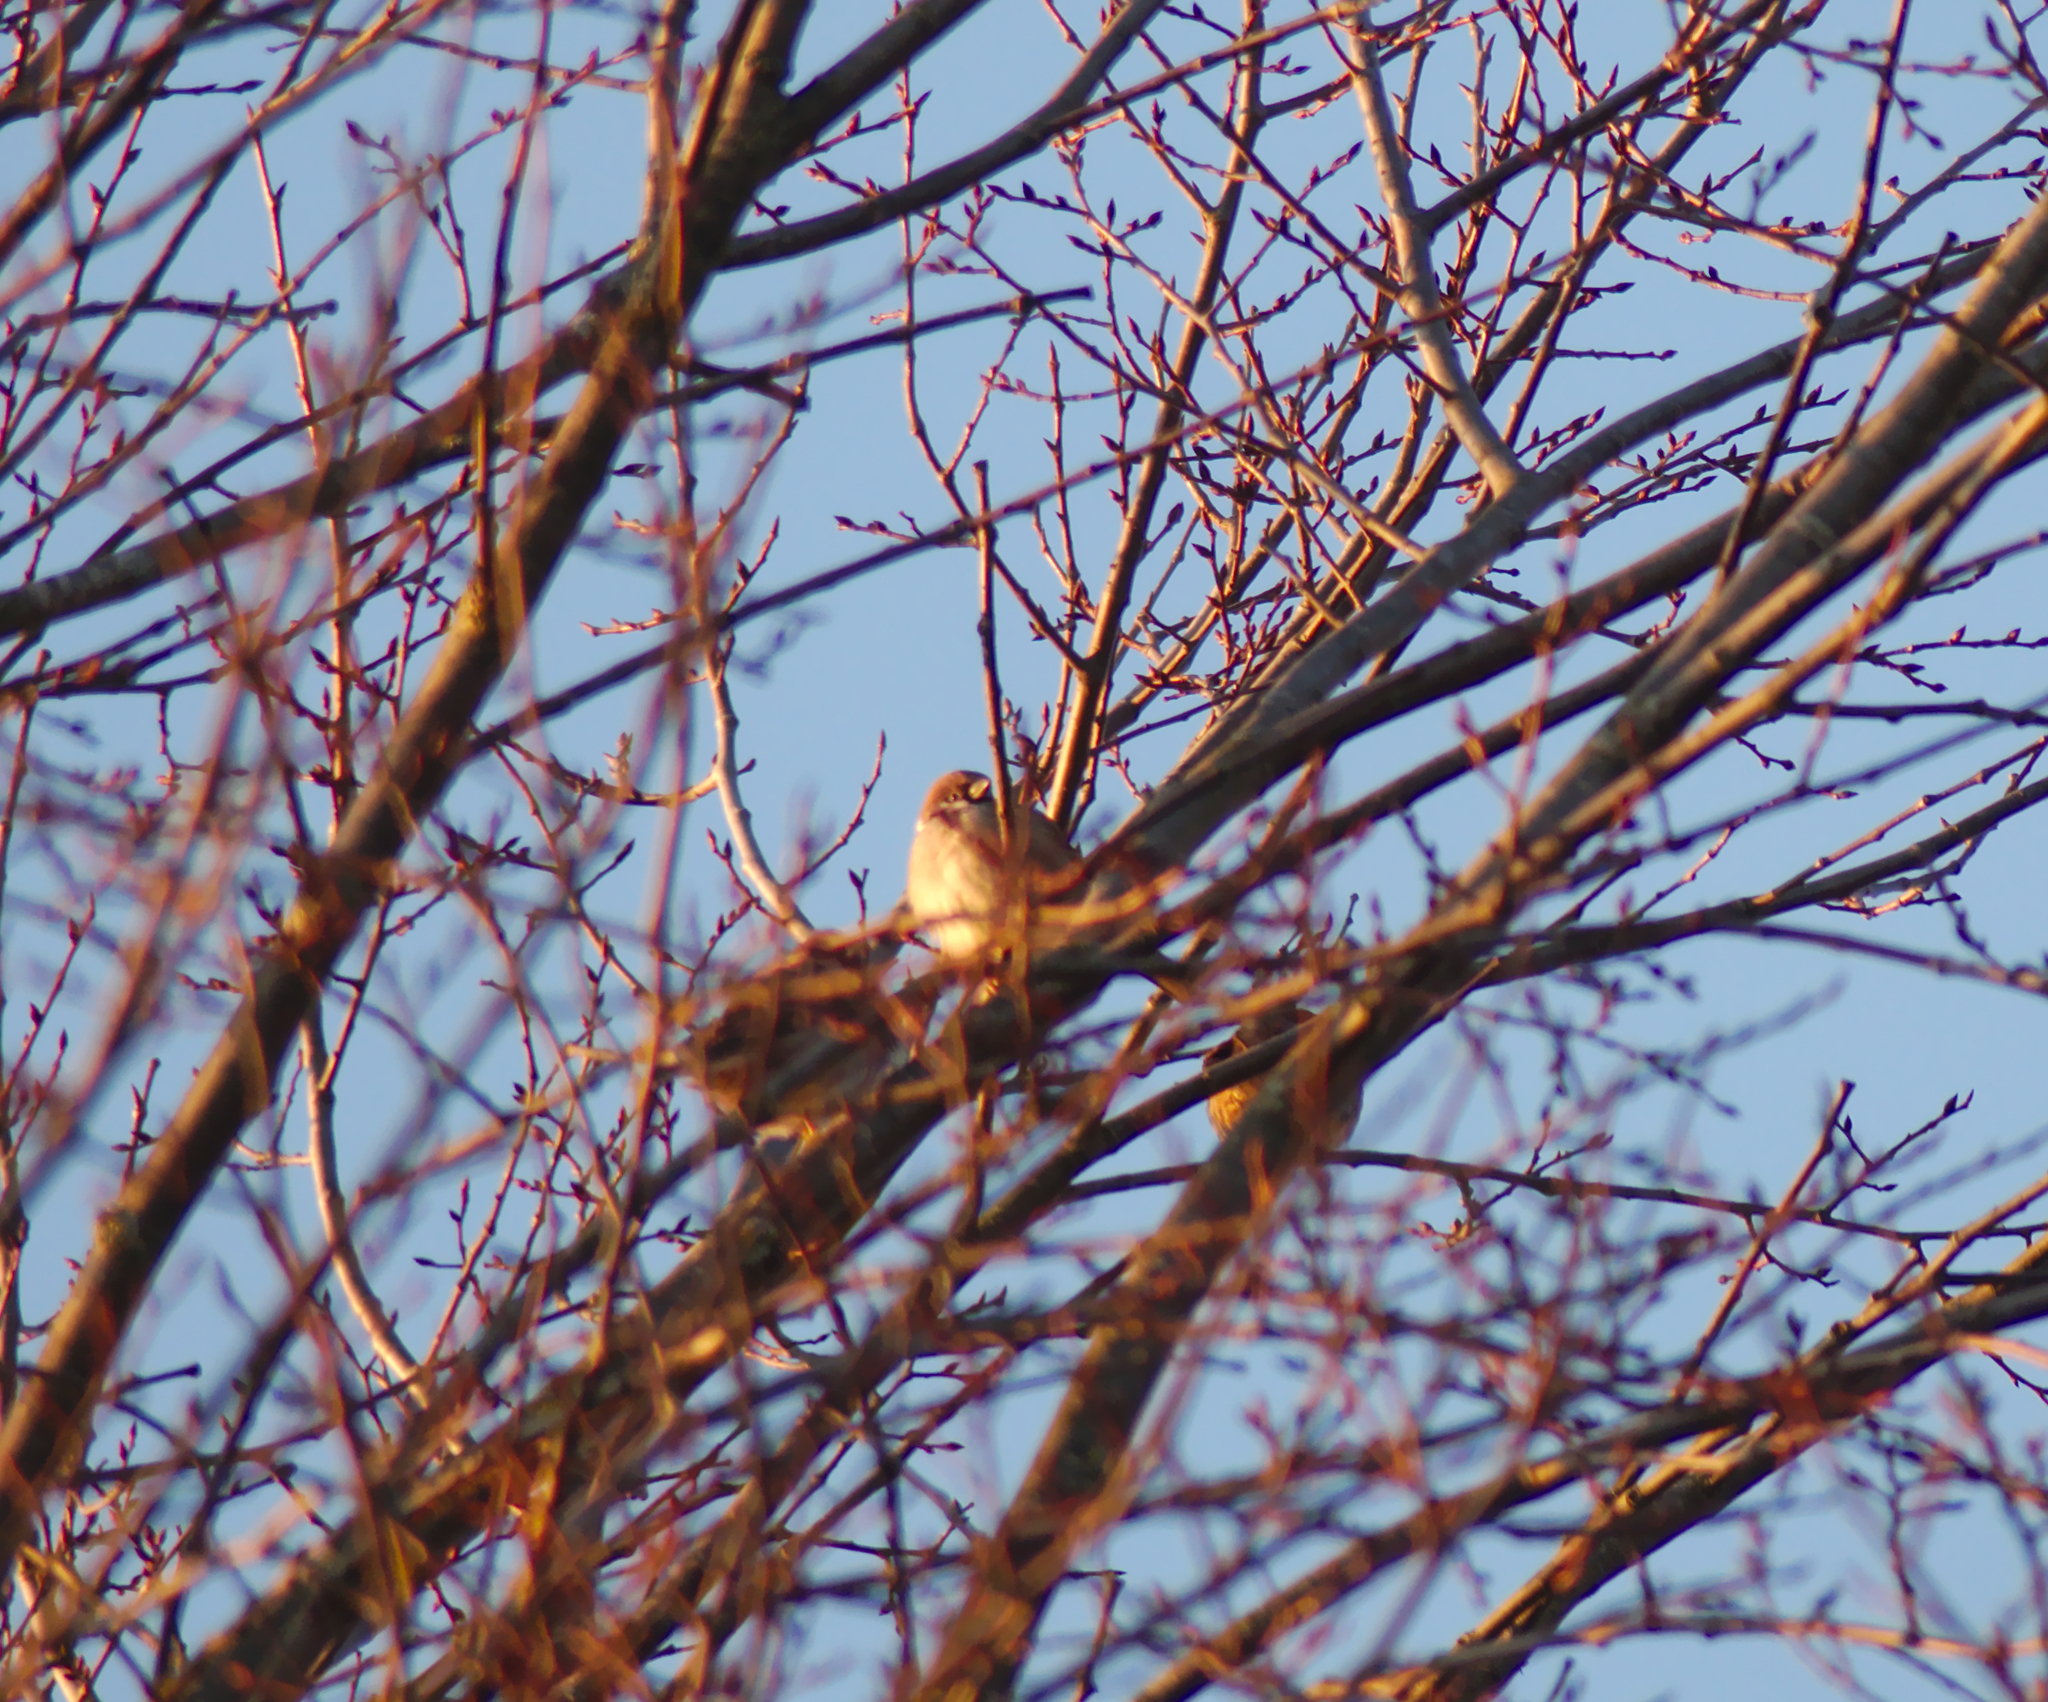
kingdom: Animalia
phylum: Chordata
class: Aves
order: Passeriformes
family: Passeridae
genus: Passer
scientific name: Passer montanus
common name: Eurasian tree sparrow
